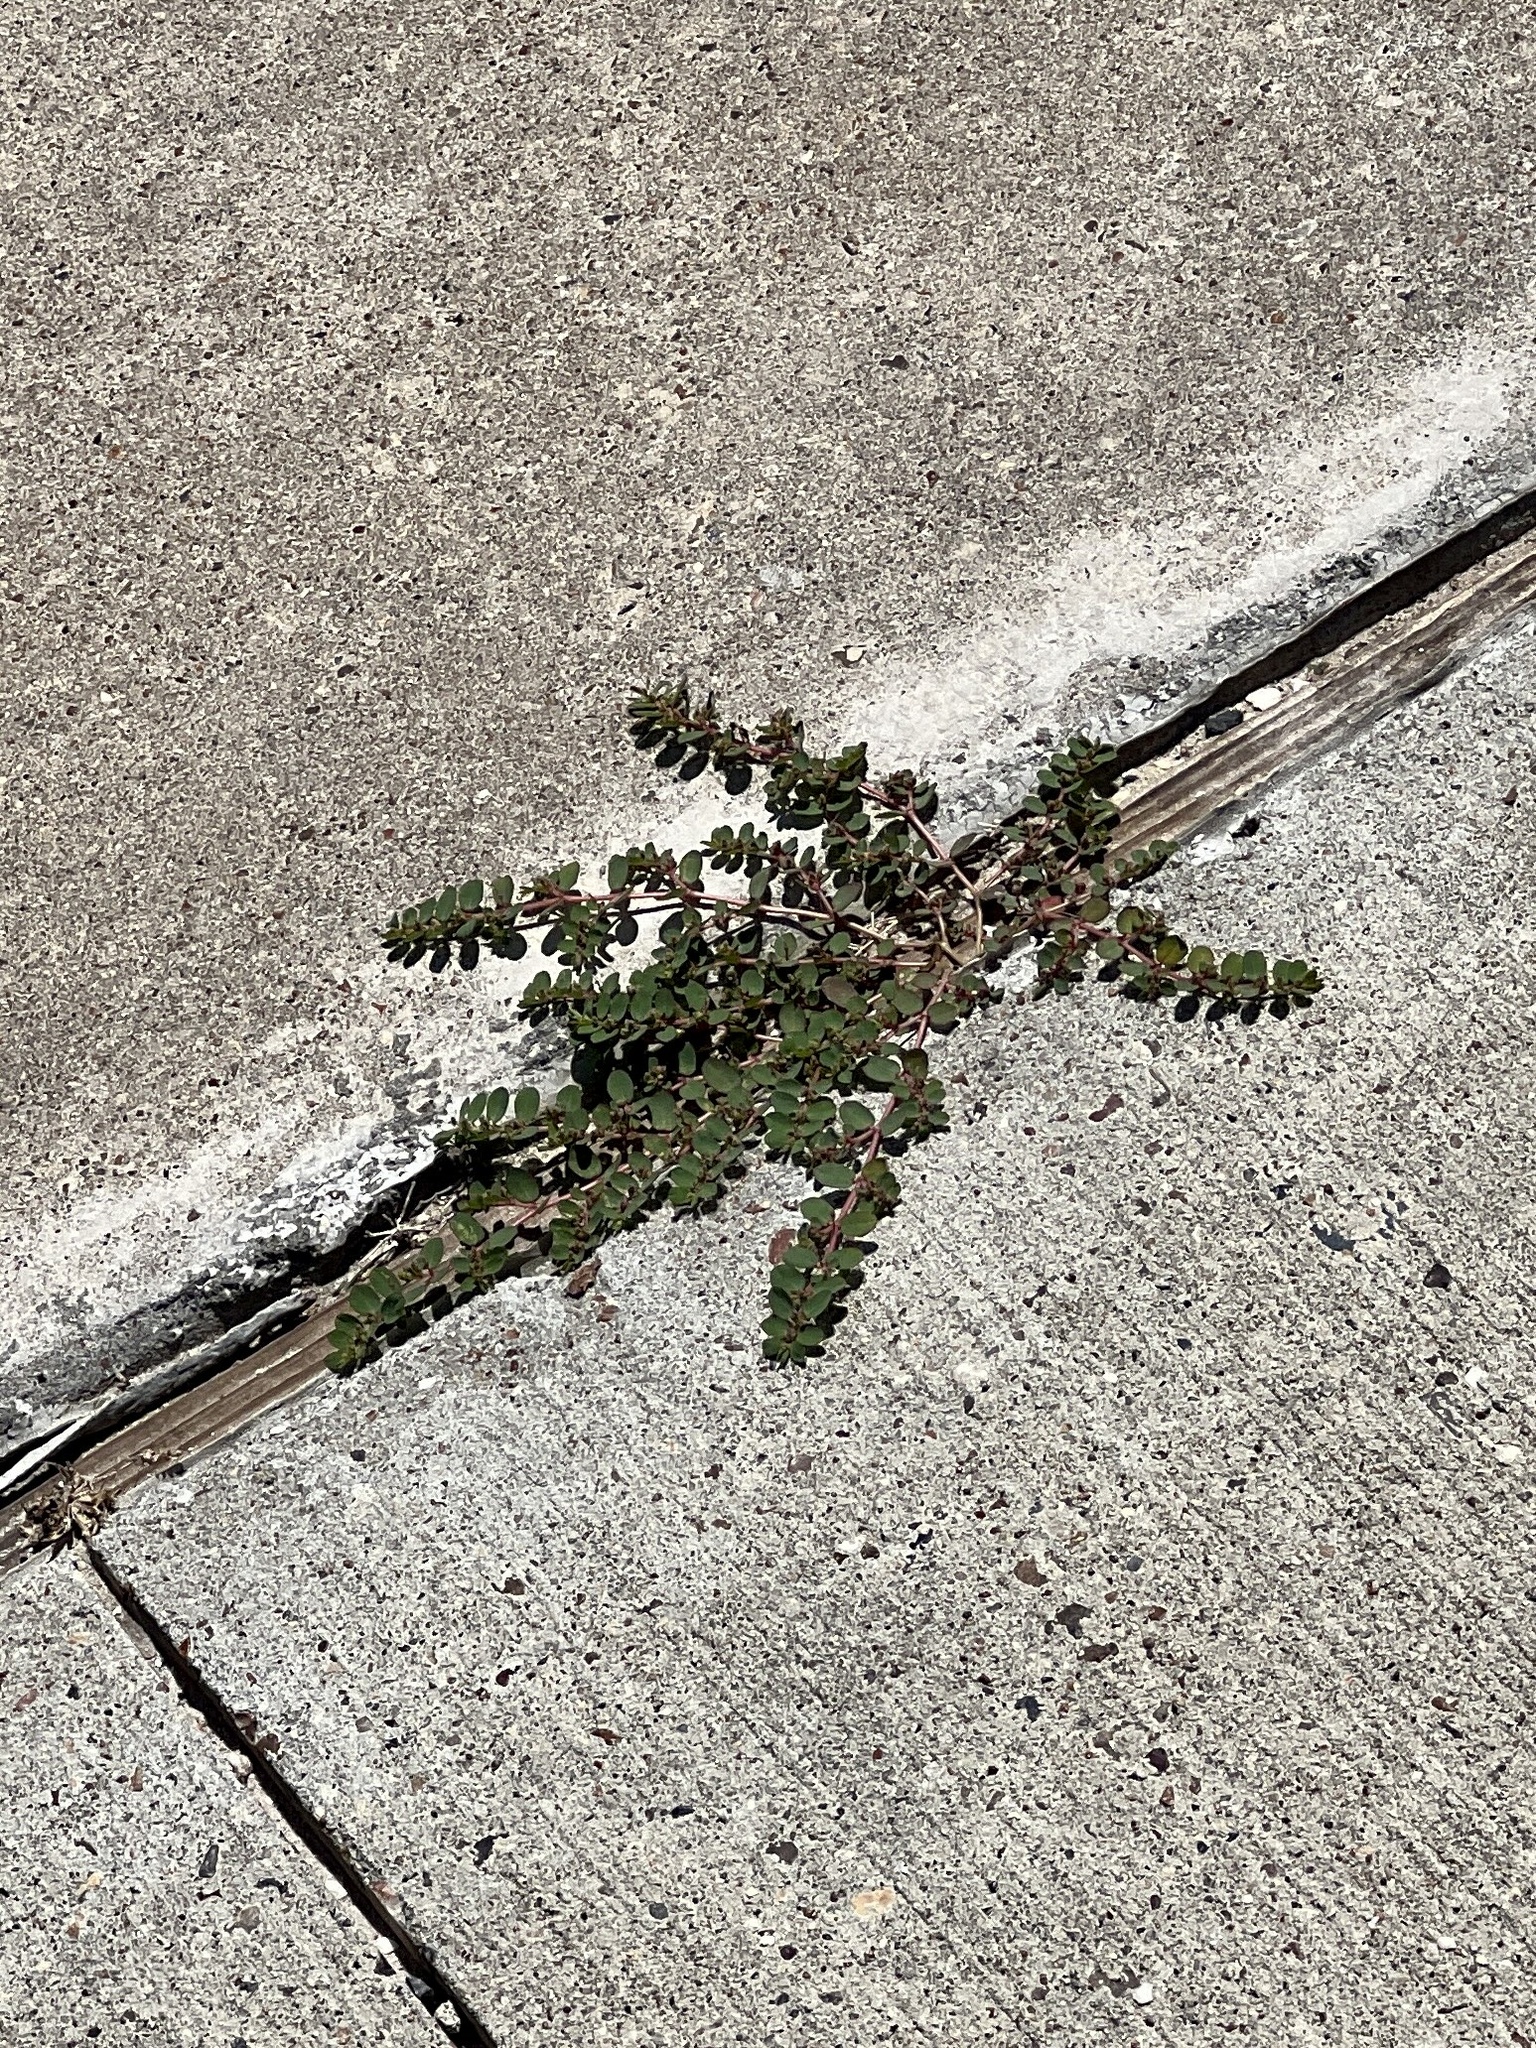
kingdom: Plantae
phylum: Tracheophyta
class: Magnoliopsida
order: Malpighiales
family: Euphorbiaceae
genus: Euphorbia
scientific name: Euphorbia prostrata
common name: Prostrate sandmat
